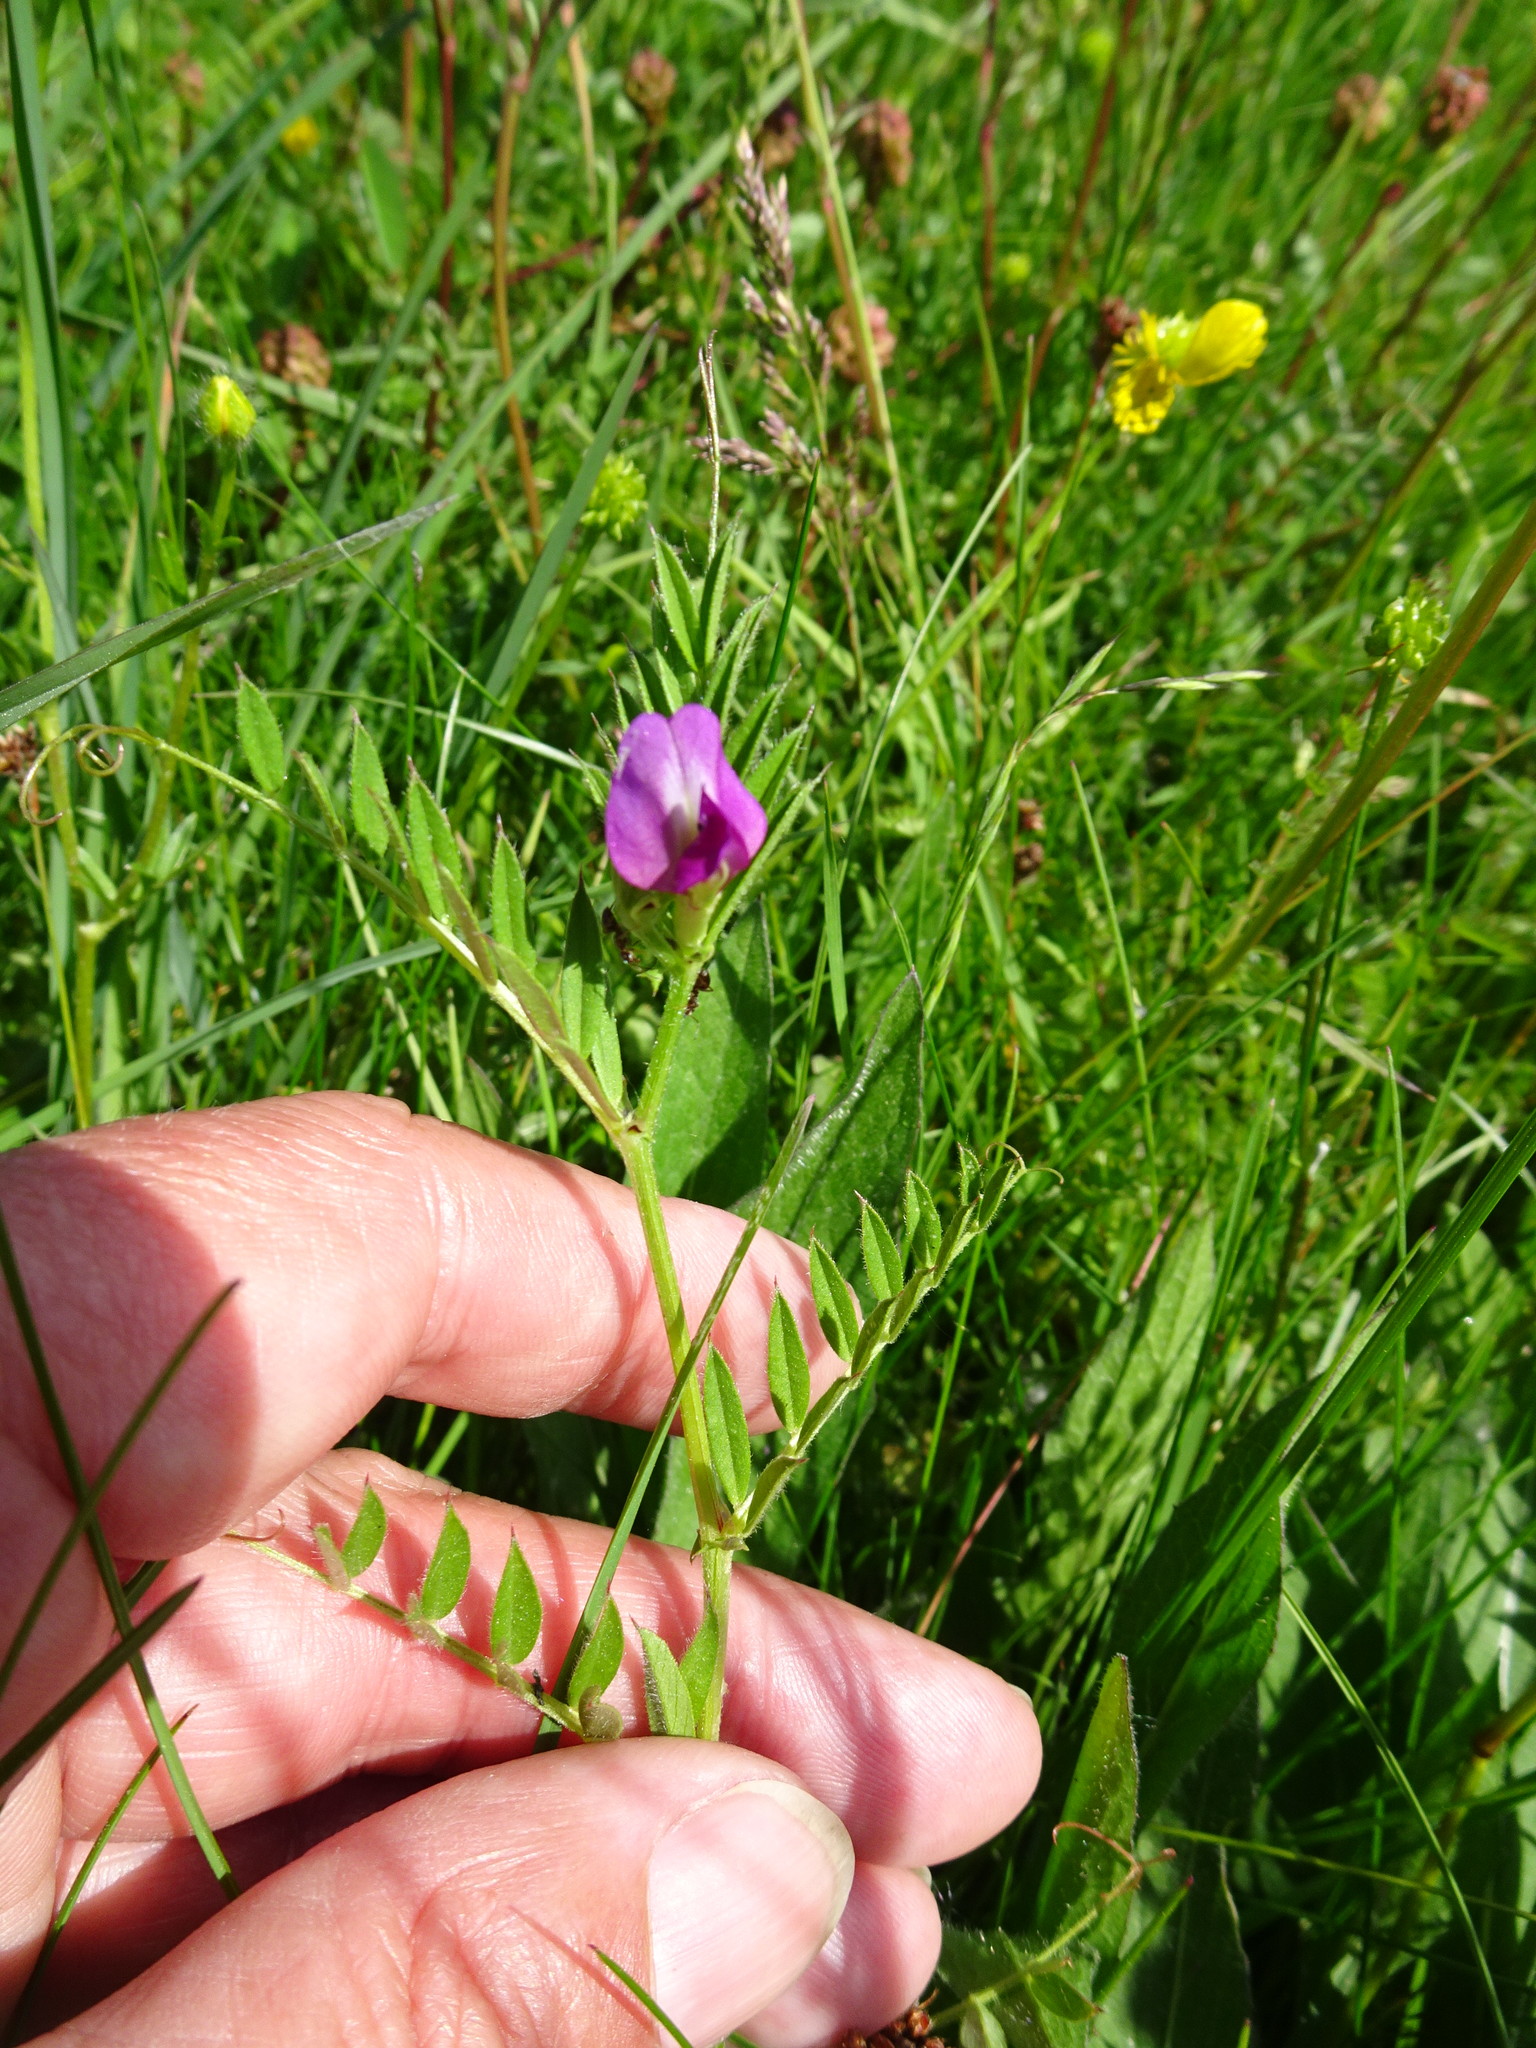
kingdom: Plantae
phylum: Tracheophyta
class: Magnoliopsida
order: Fabales
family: Fabaceae
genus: Vicia
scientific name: Vicia sativa
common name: Garden vetch
